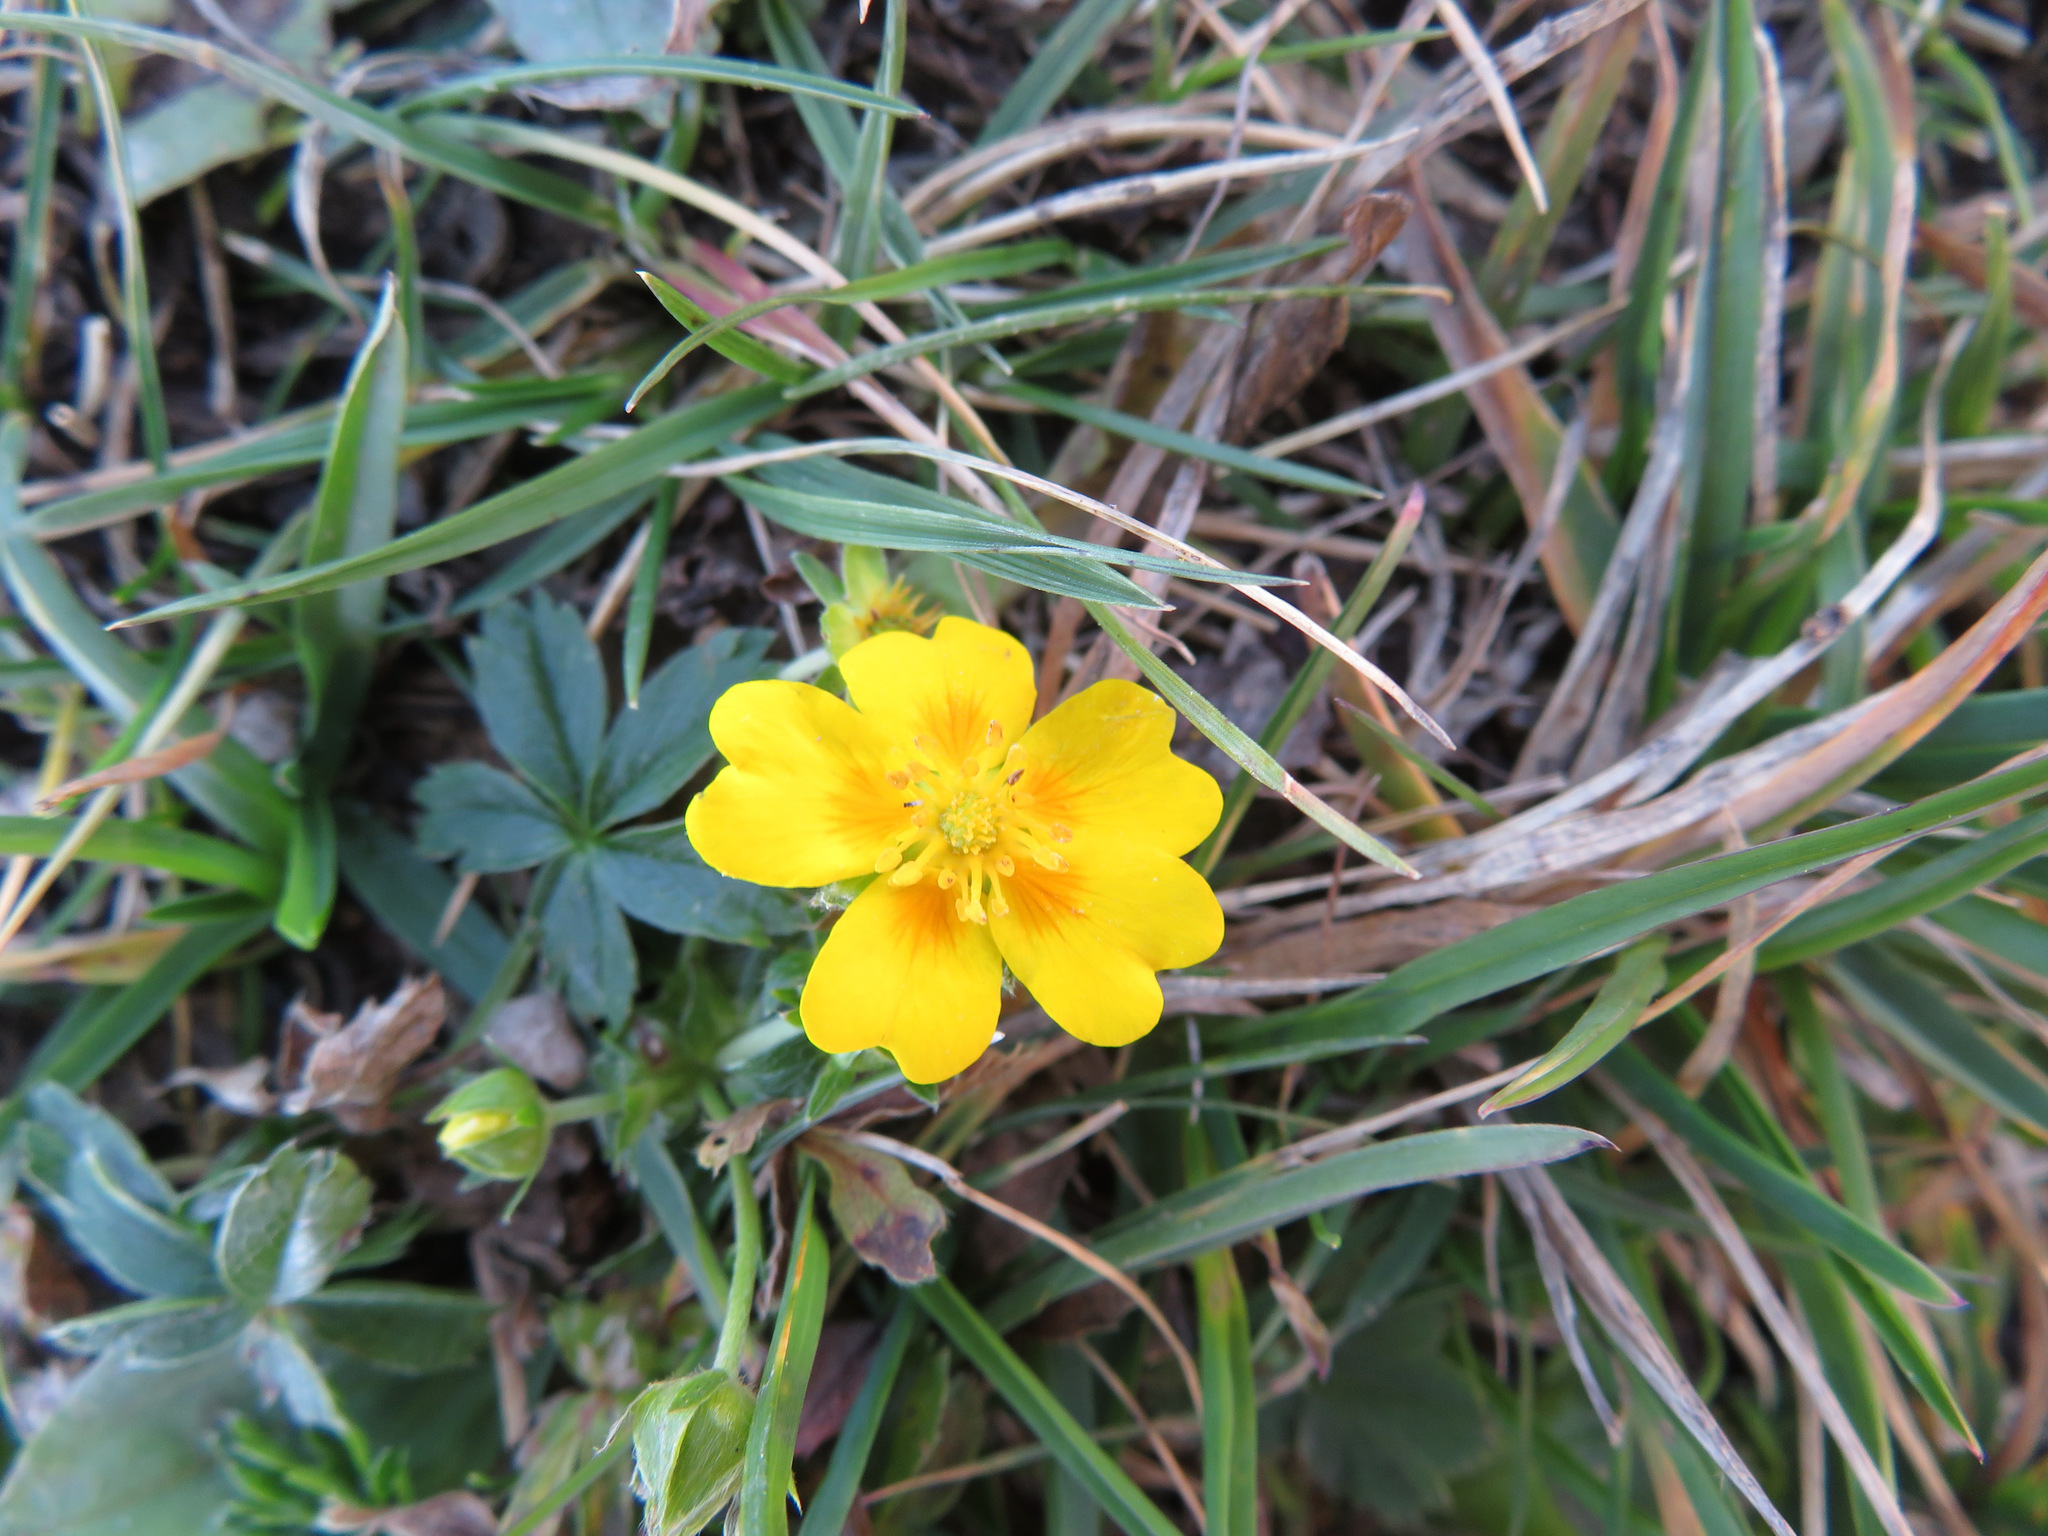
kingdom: Plantae
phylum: Tracheophyta
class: Magnoliopsida
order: Rosales
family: Rosaceae
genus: Potentilla
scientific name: Potentilla aurea
